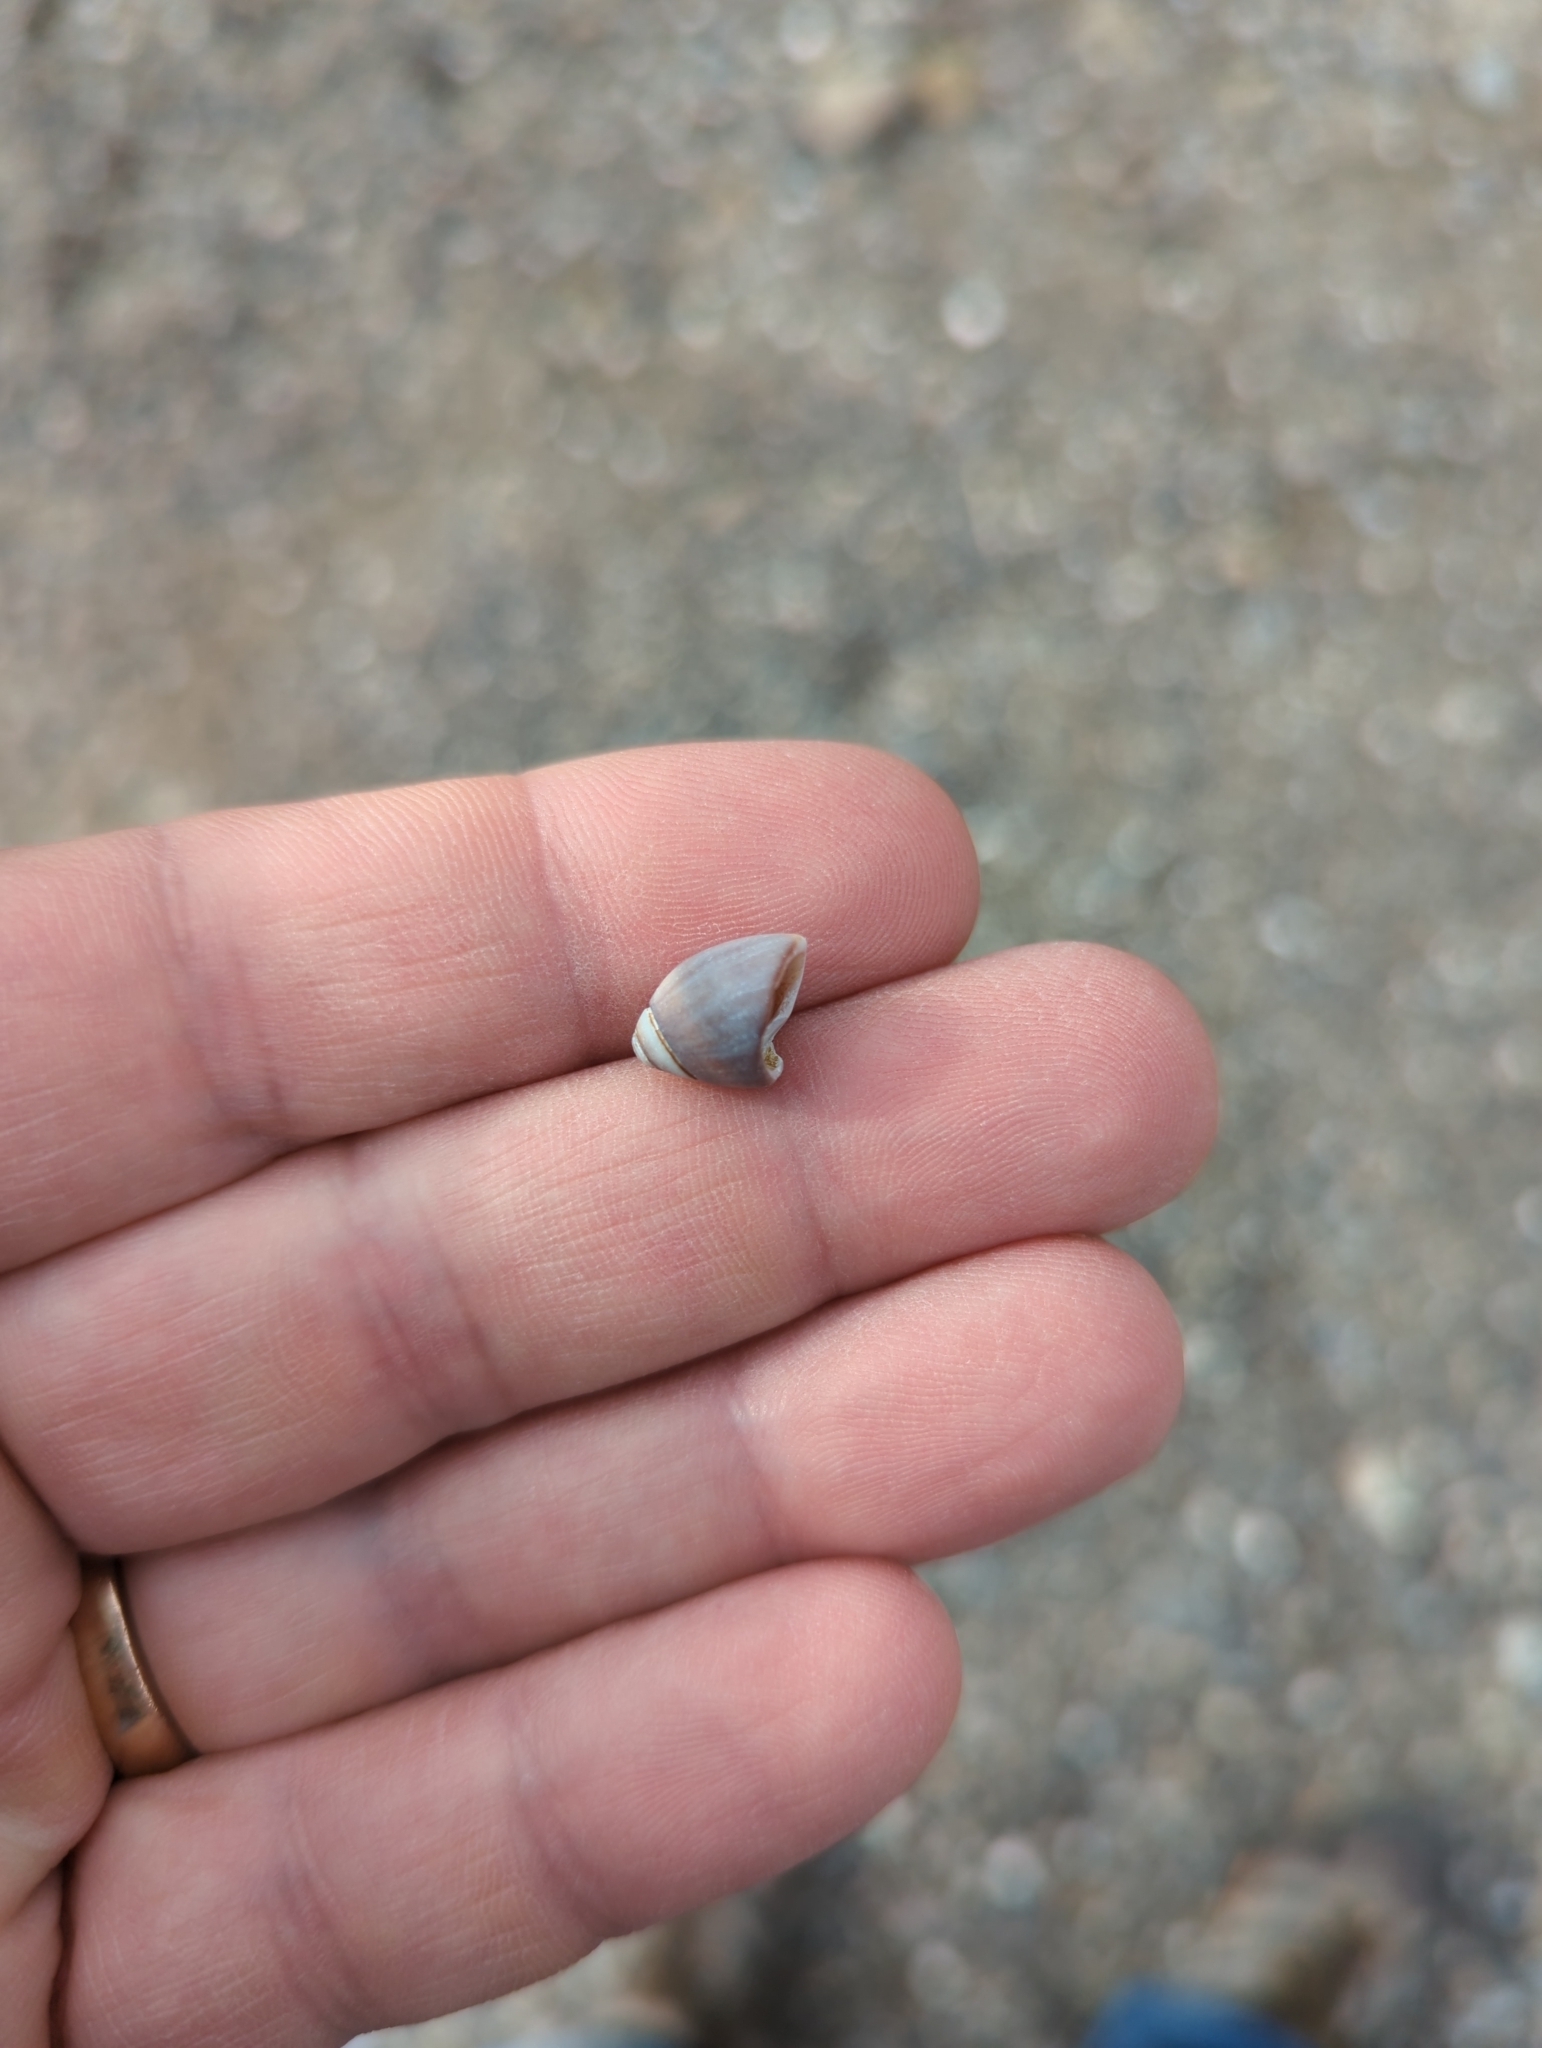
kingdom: Animalia
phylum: Mollusca
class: Gastropoda
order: Neogastropoda
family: Olividae
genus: Callianax
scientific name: Callianax biplicata
